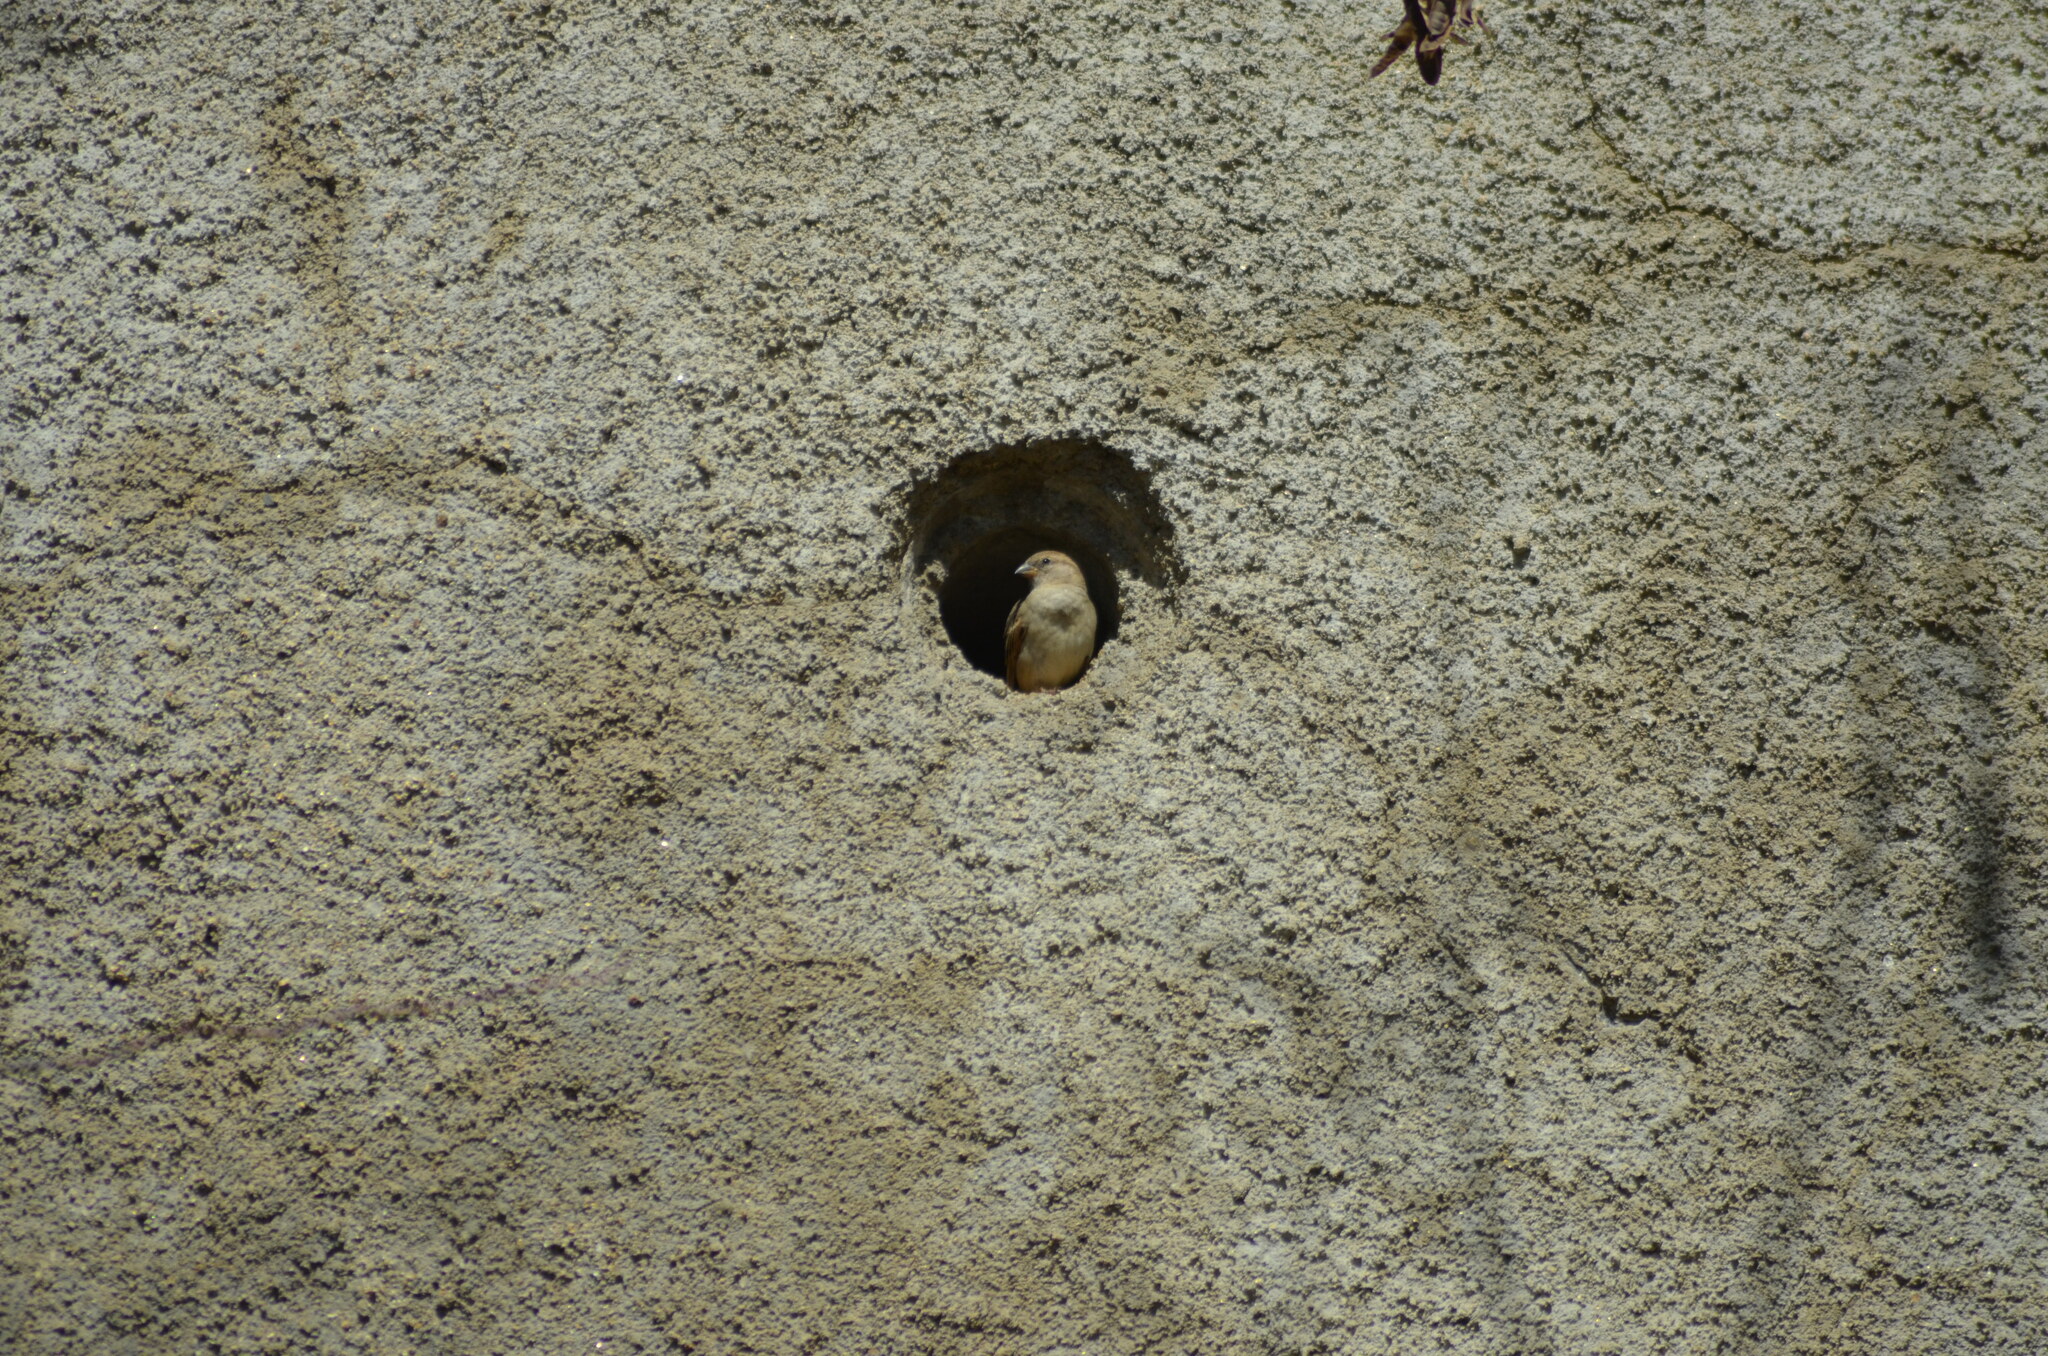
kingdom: Animalia
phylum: Chordata
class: Aves
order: Passeriformes
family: Passeridae
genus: Passer
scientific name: Passer domesticus
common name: House sparrow
